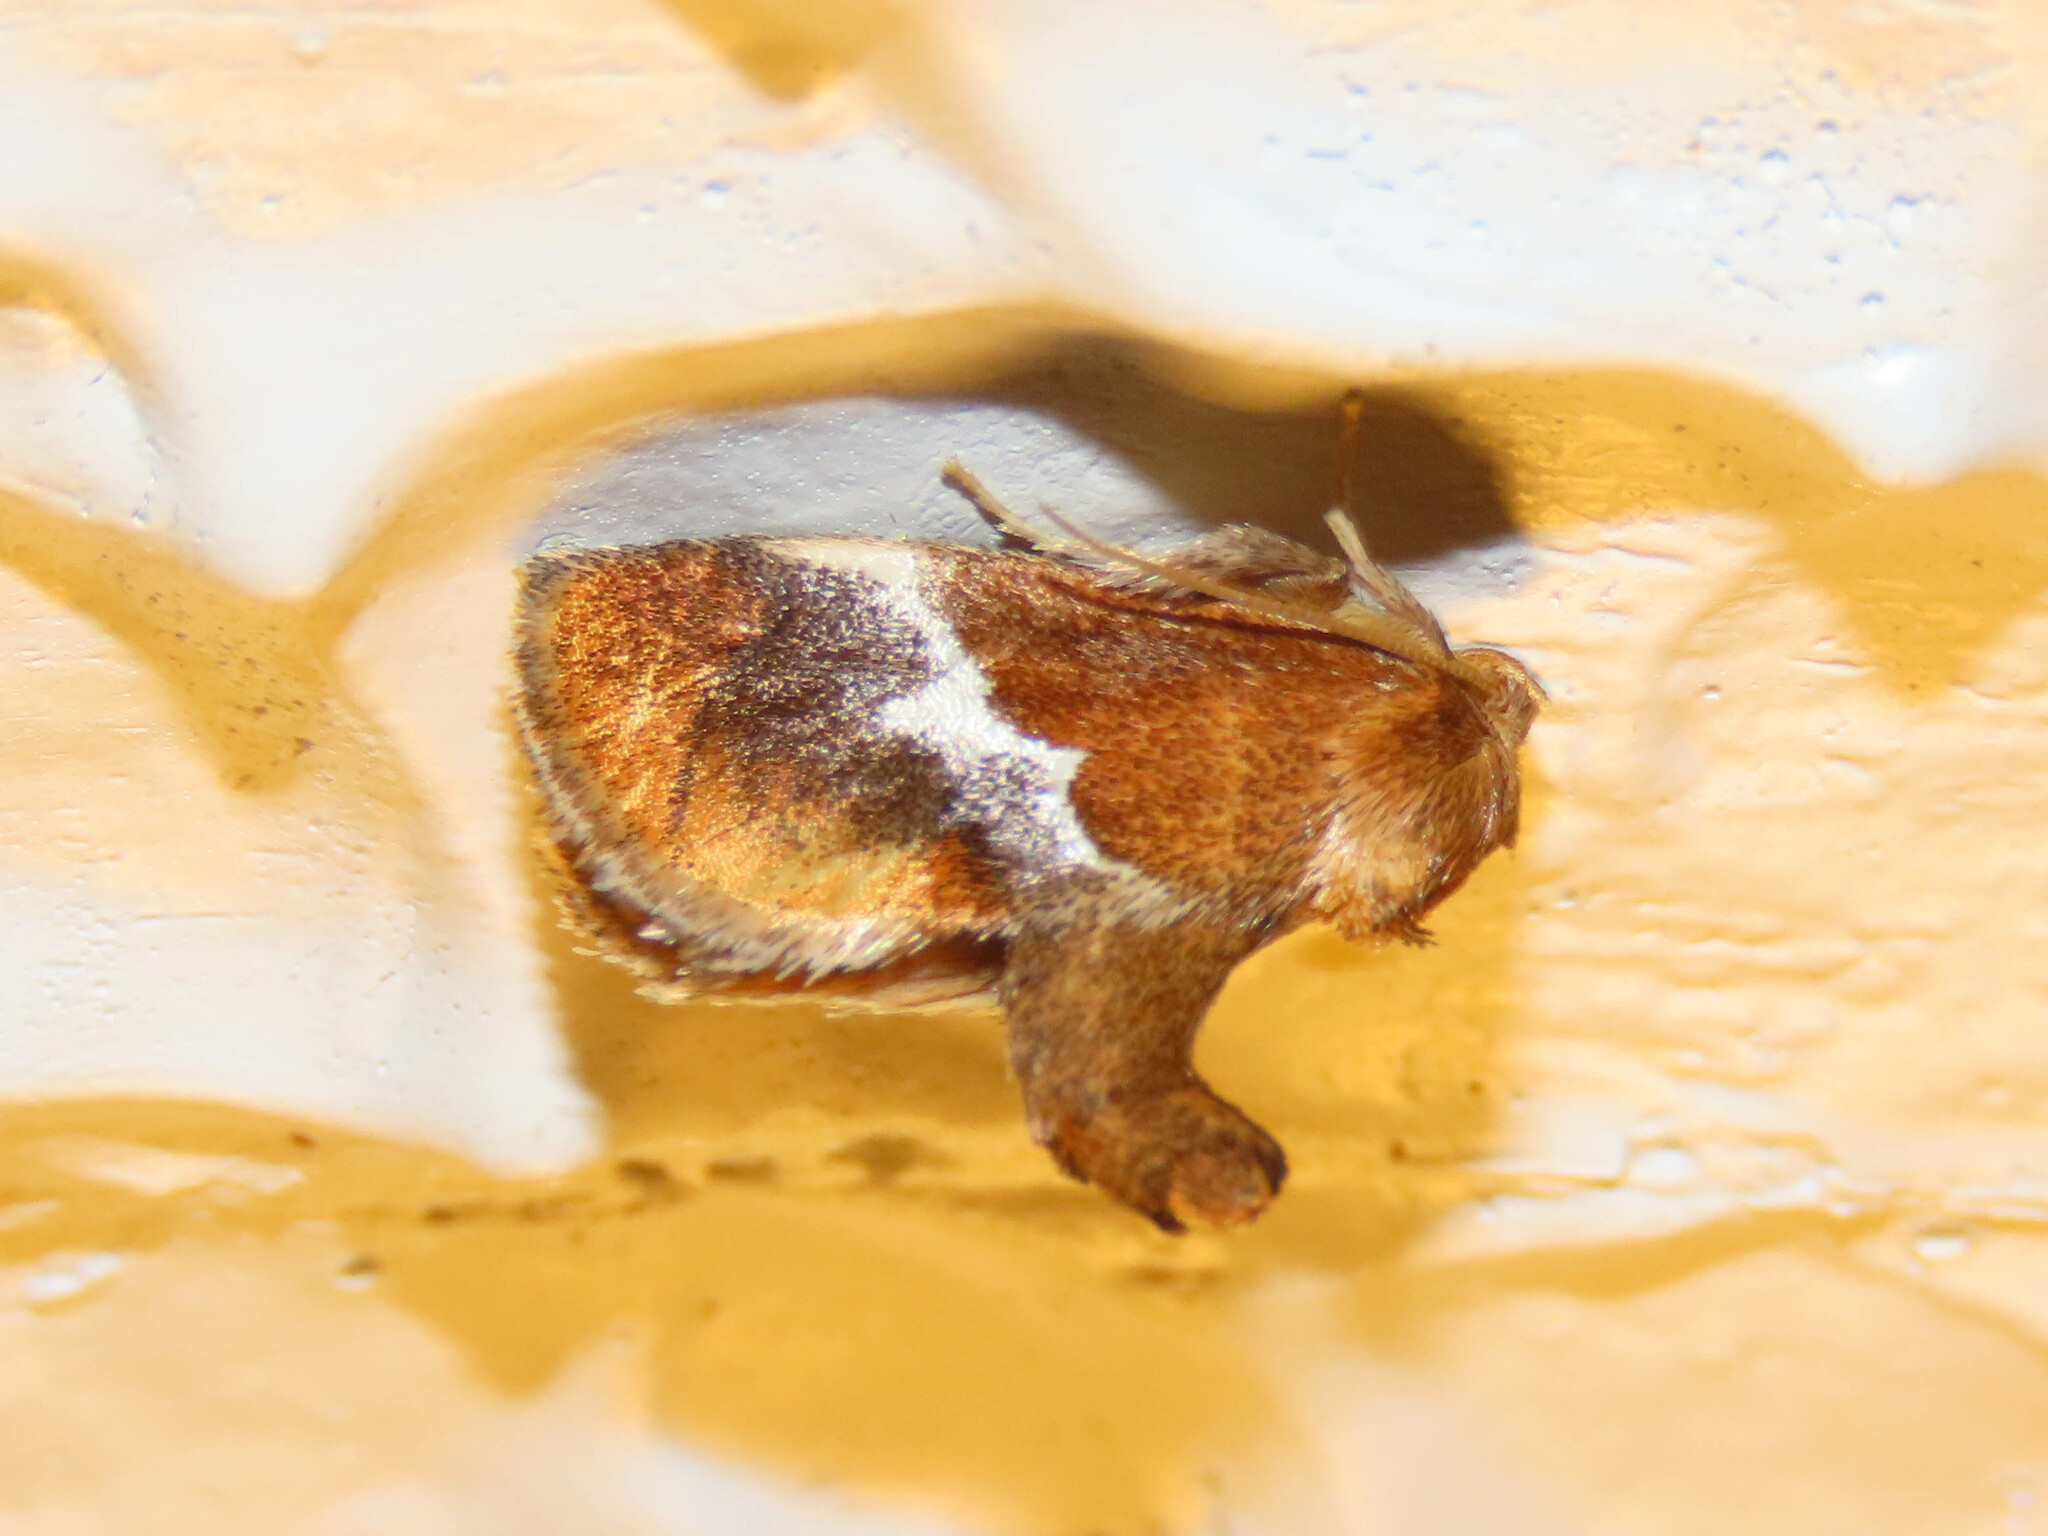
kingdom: Animalia
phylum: Arthropoda
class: Insecta
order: Lepidoptera
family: Limacodidae
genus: Lithacodes
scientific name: Lithacodes fasciola
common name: Yellow-shouldered slug moth
